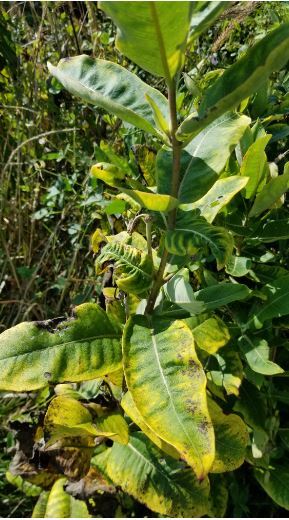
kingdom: Plantae
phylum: Tracheophyta
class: Magnoliopsida
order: Gentianales
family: Apocynaceae
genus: Asclepias
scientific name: Asclepias syriaca
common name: Common milkweed
